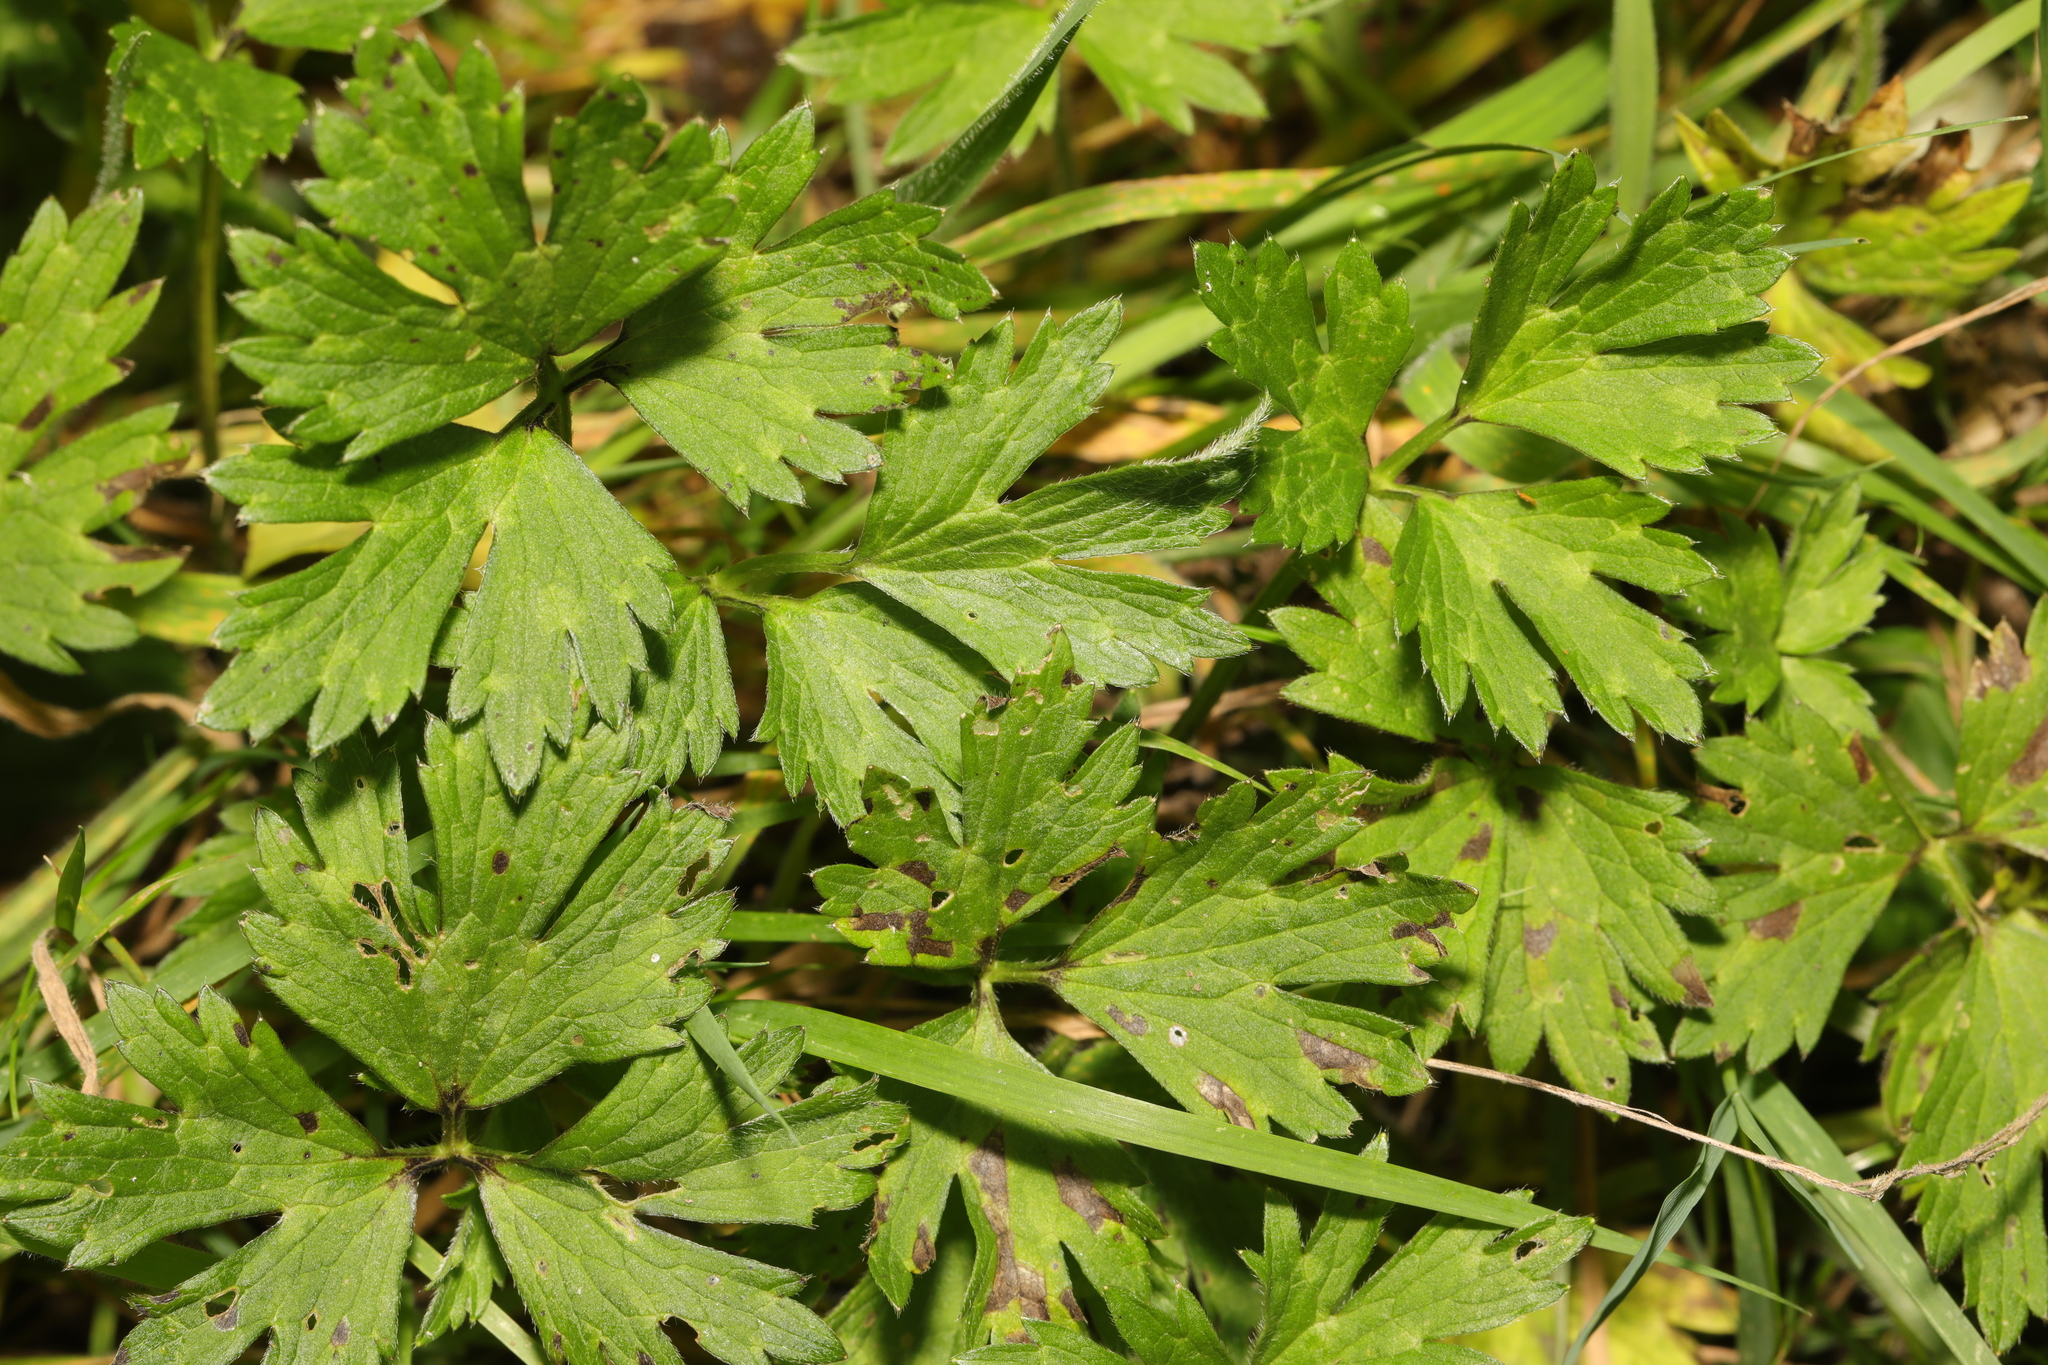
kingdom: Plantae
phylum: Tracheophyta
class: Magnoliopsida
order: Ranunculales
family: Ranunculaceae
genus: Ranunculus
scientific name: Ranunculus repens
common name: Creeping buttercup
